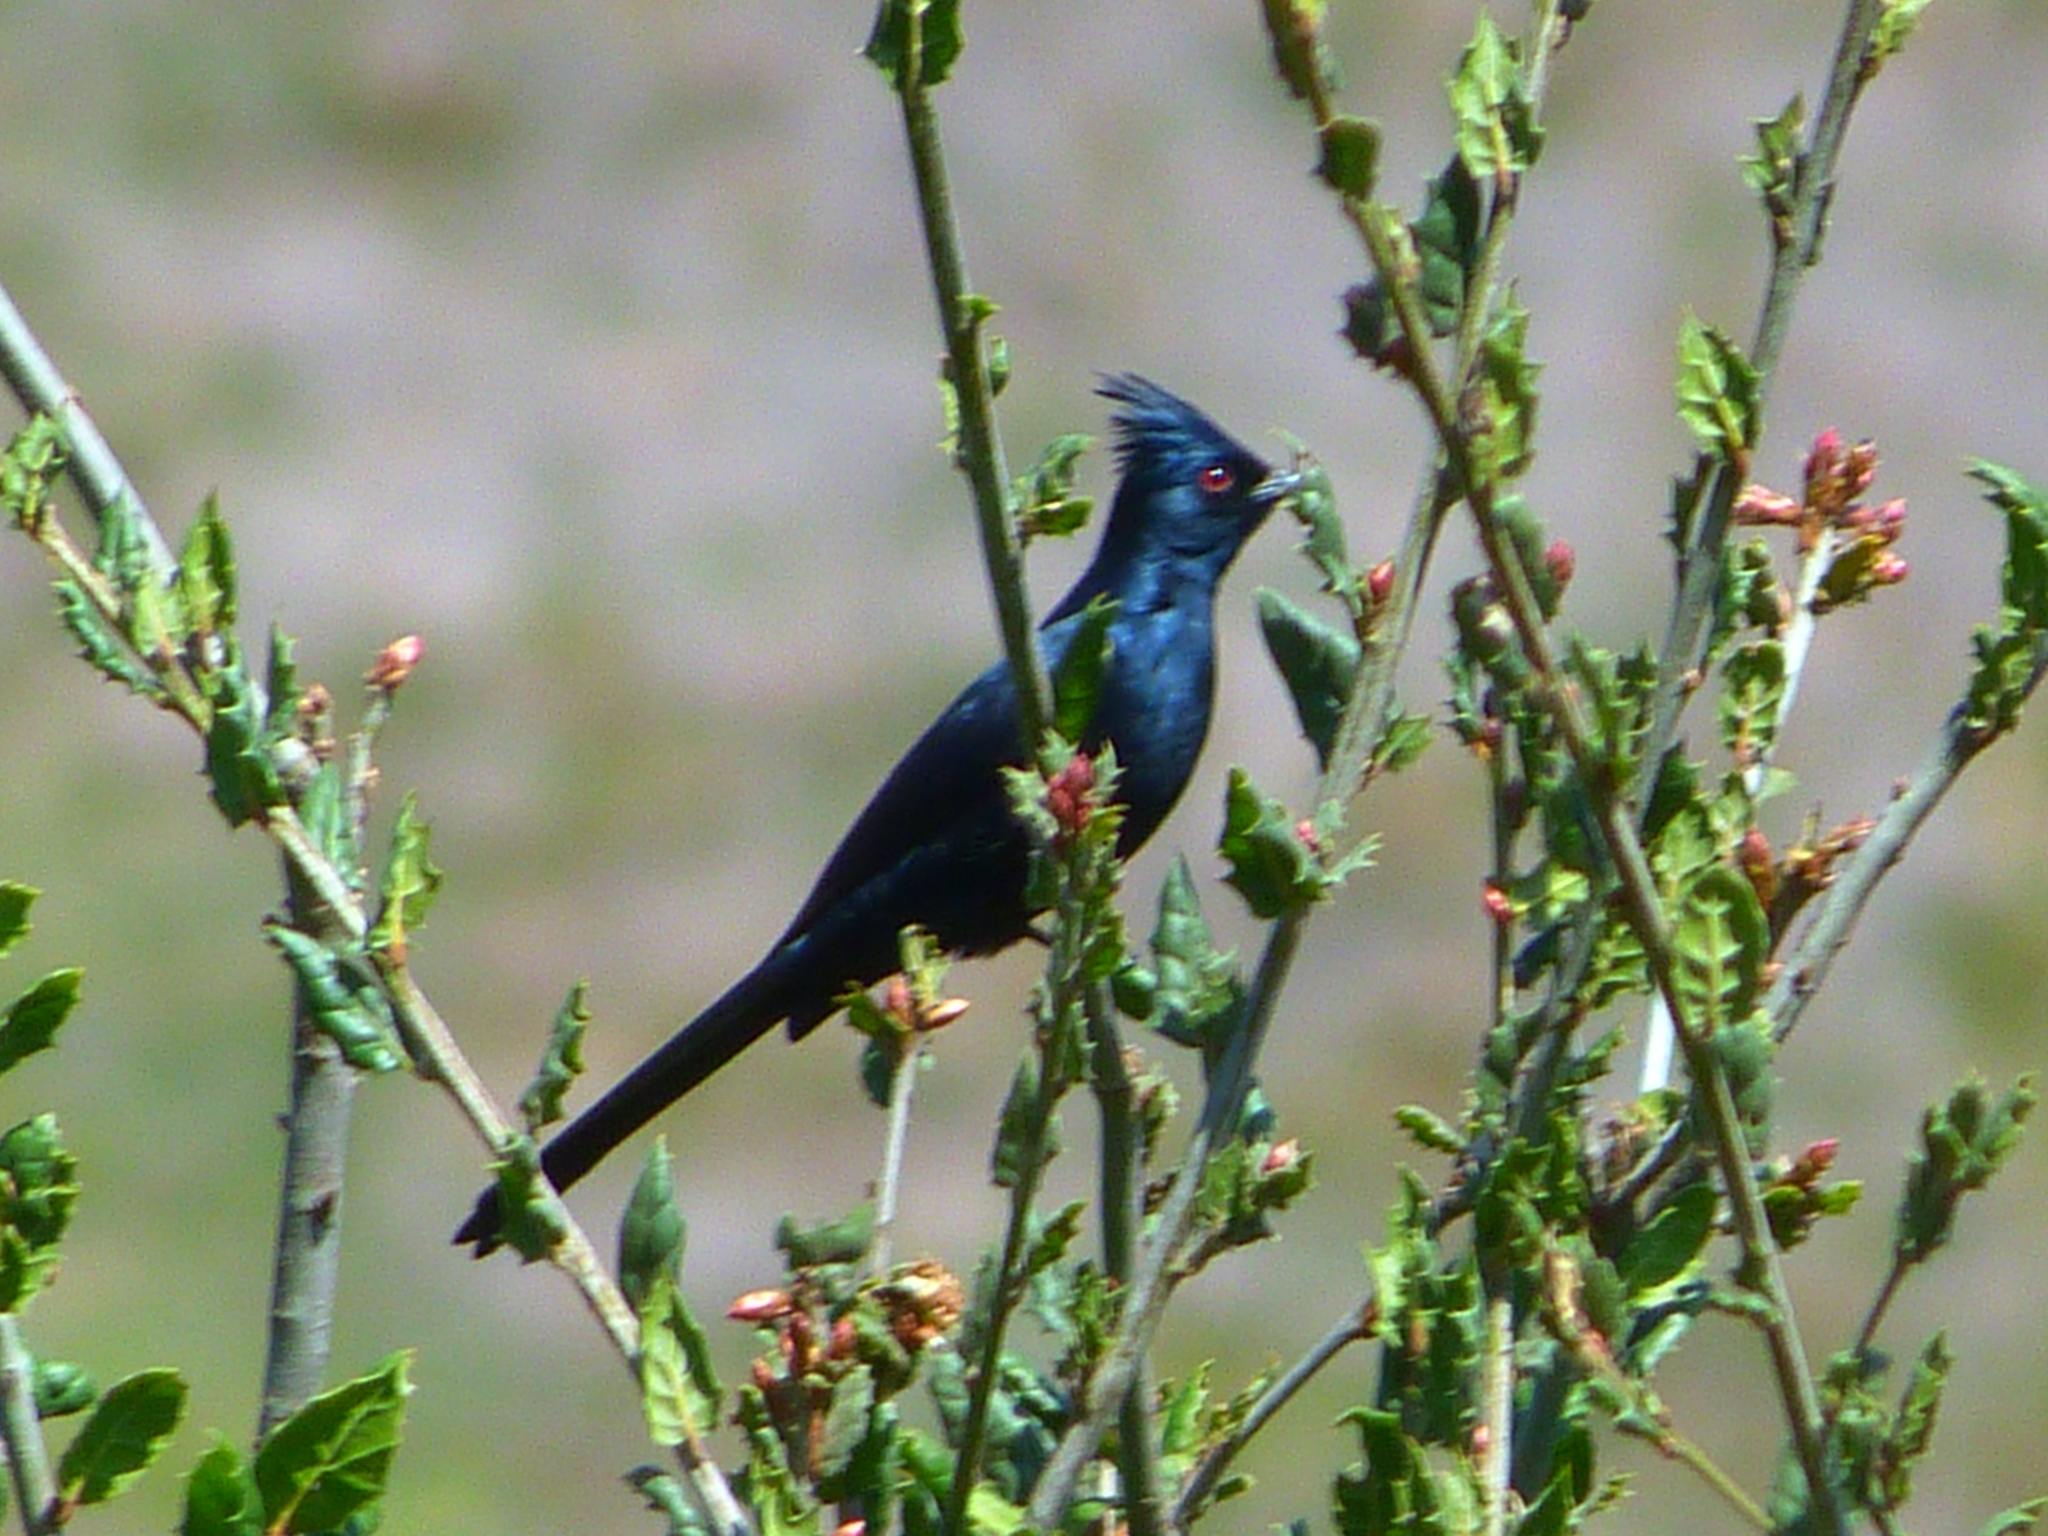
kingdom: Animalia
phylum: Chordata
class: Aves
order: Passeriformes
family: Ptilogonatidae
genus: Phainopepla
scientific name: Phainopepla nitens
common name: Phainopepla
